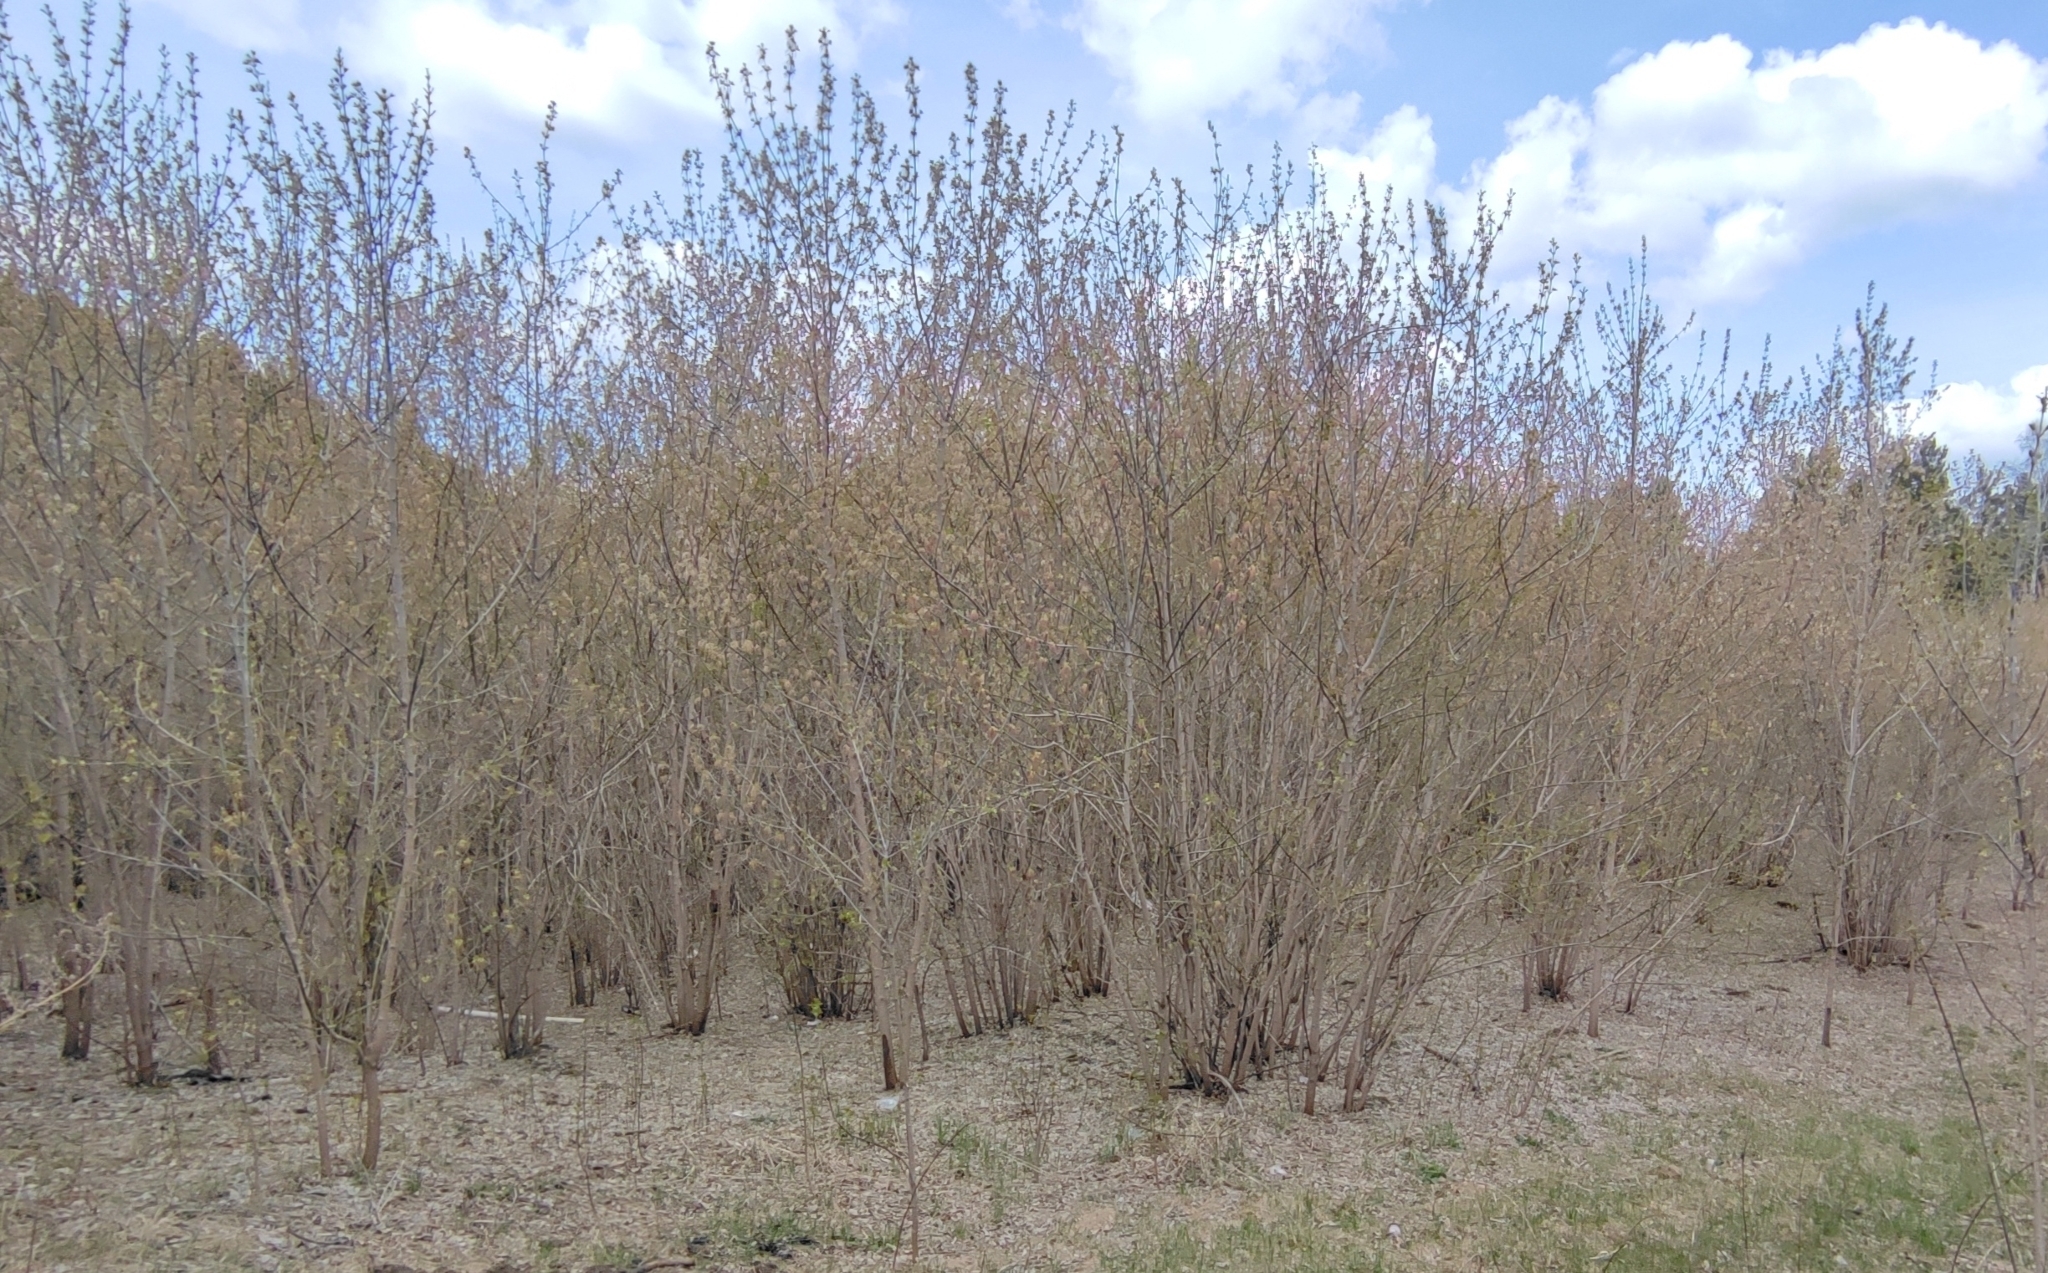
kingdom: Plantae
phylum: Tracheophyta
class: Magnoliopsida
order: Sapindales
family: Sapindaceae
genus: Acer
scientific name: Acer negundo
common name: Ashleaf maple
